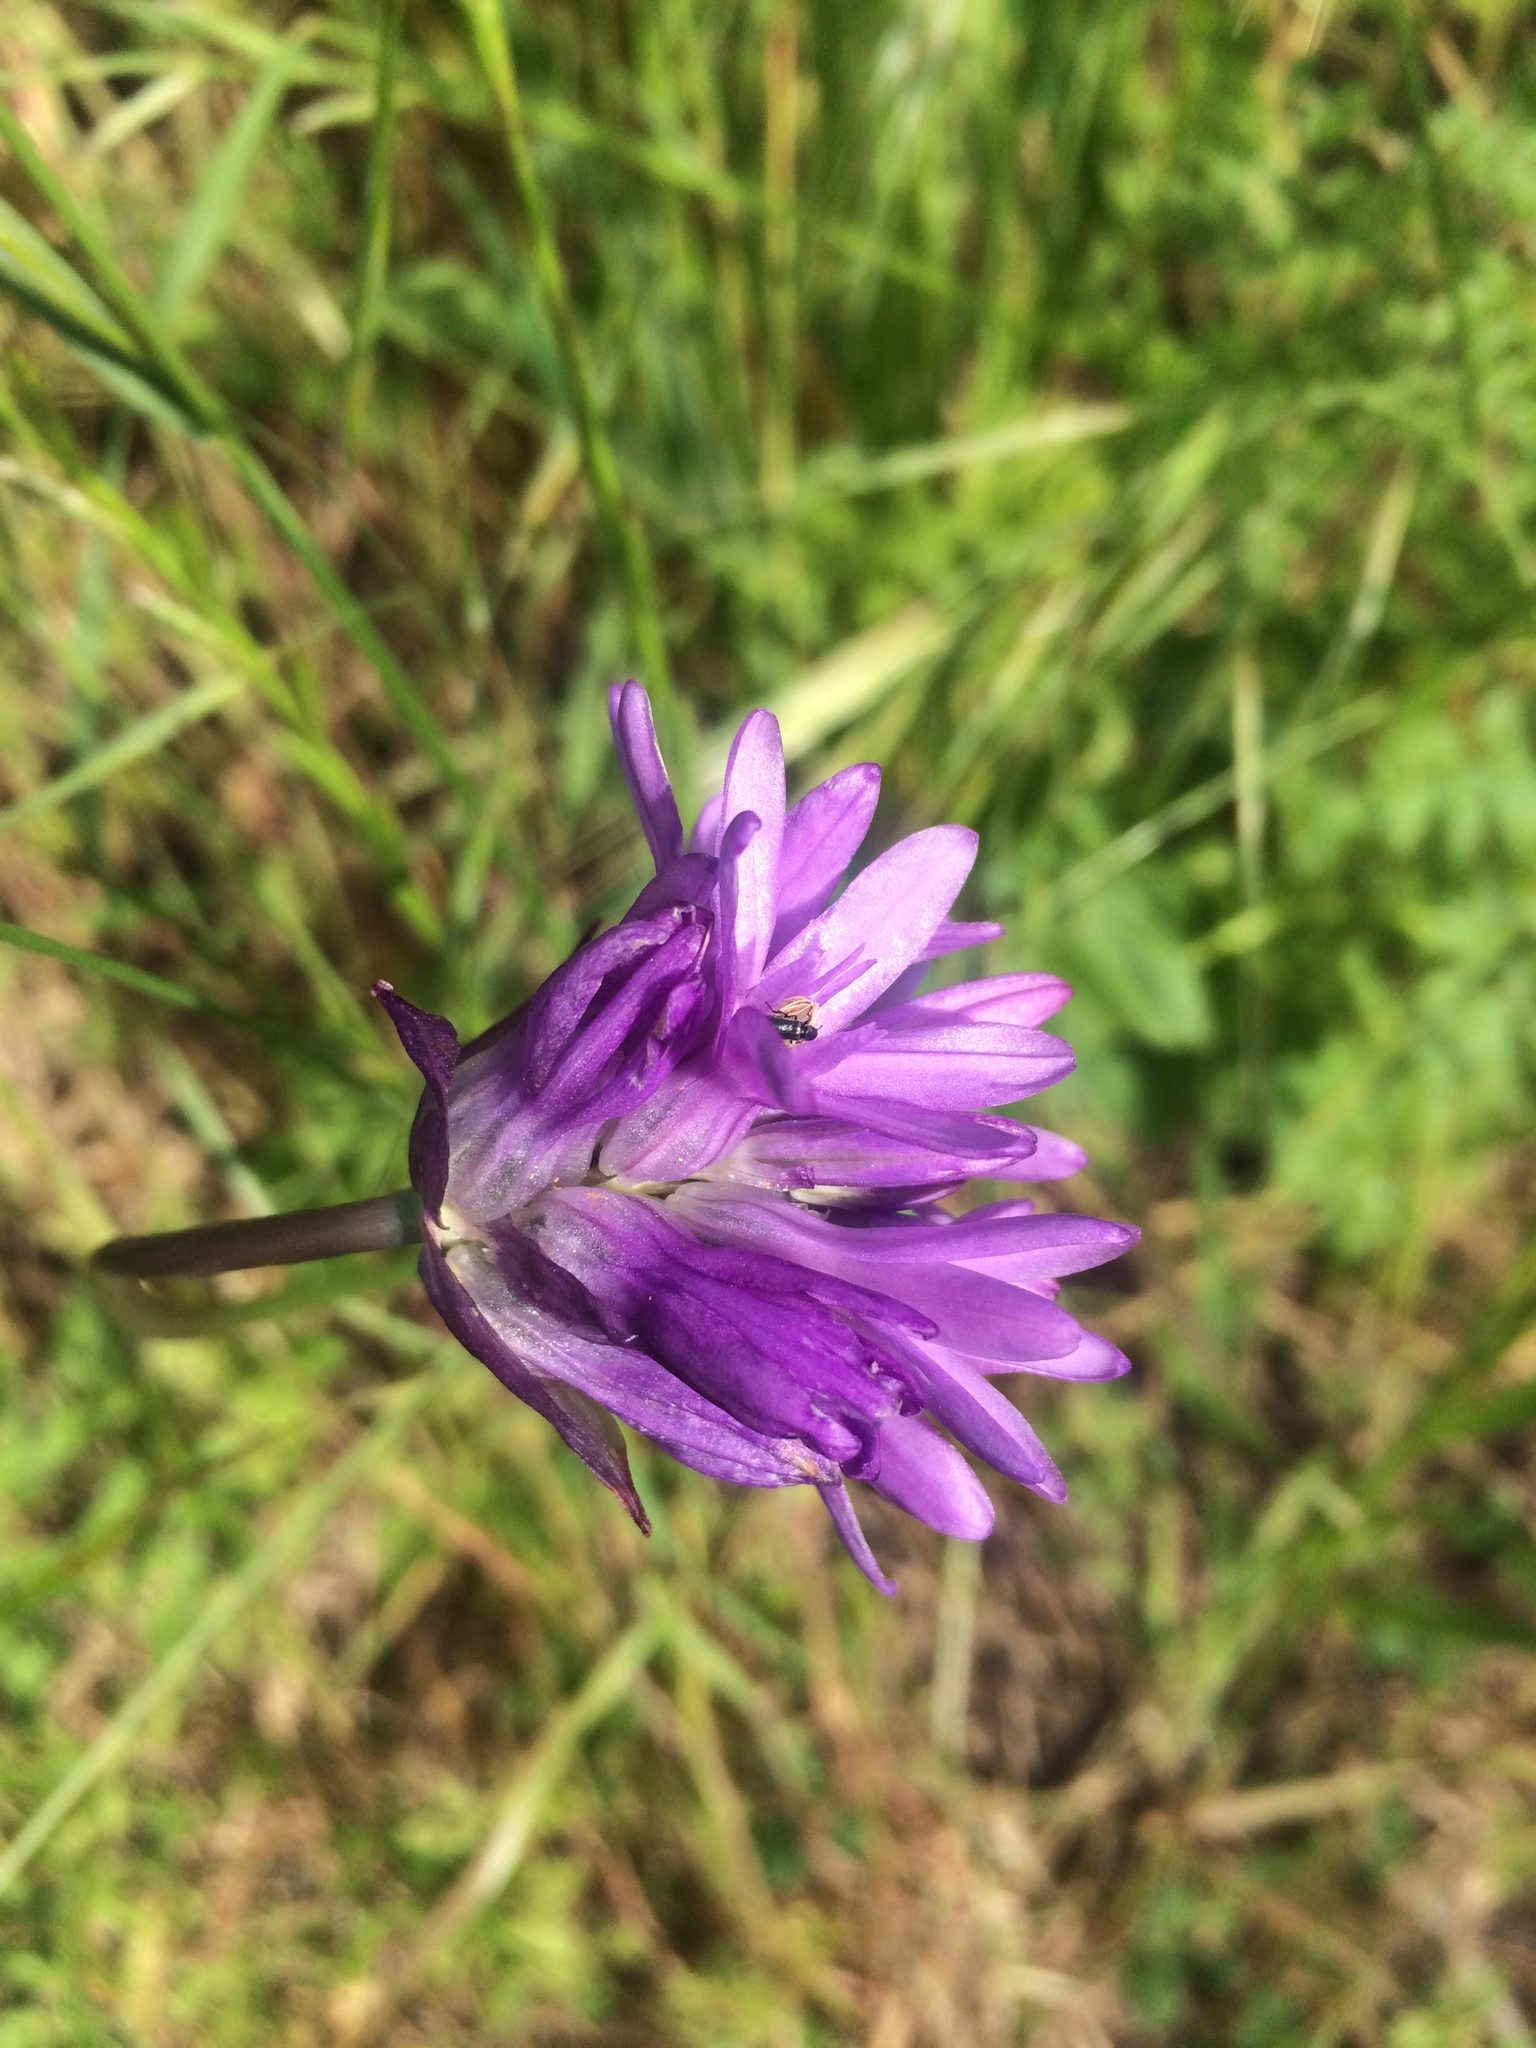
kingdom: Plantae
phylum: Tracheophyta
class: Liliopsida
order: Asparagales
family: Asparagaceae
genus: Dichelostemma
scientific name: Dichelostemma congestum
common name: Fork-tooth ookow
